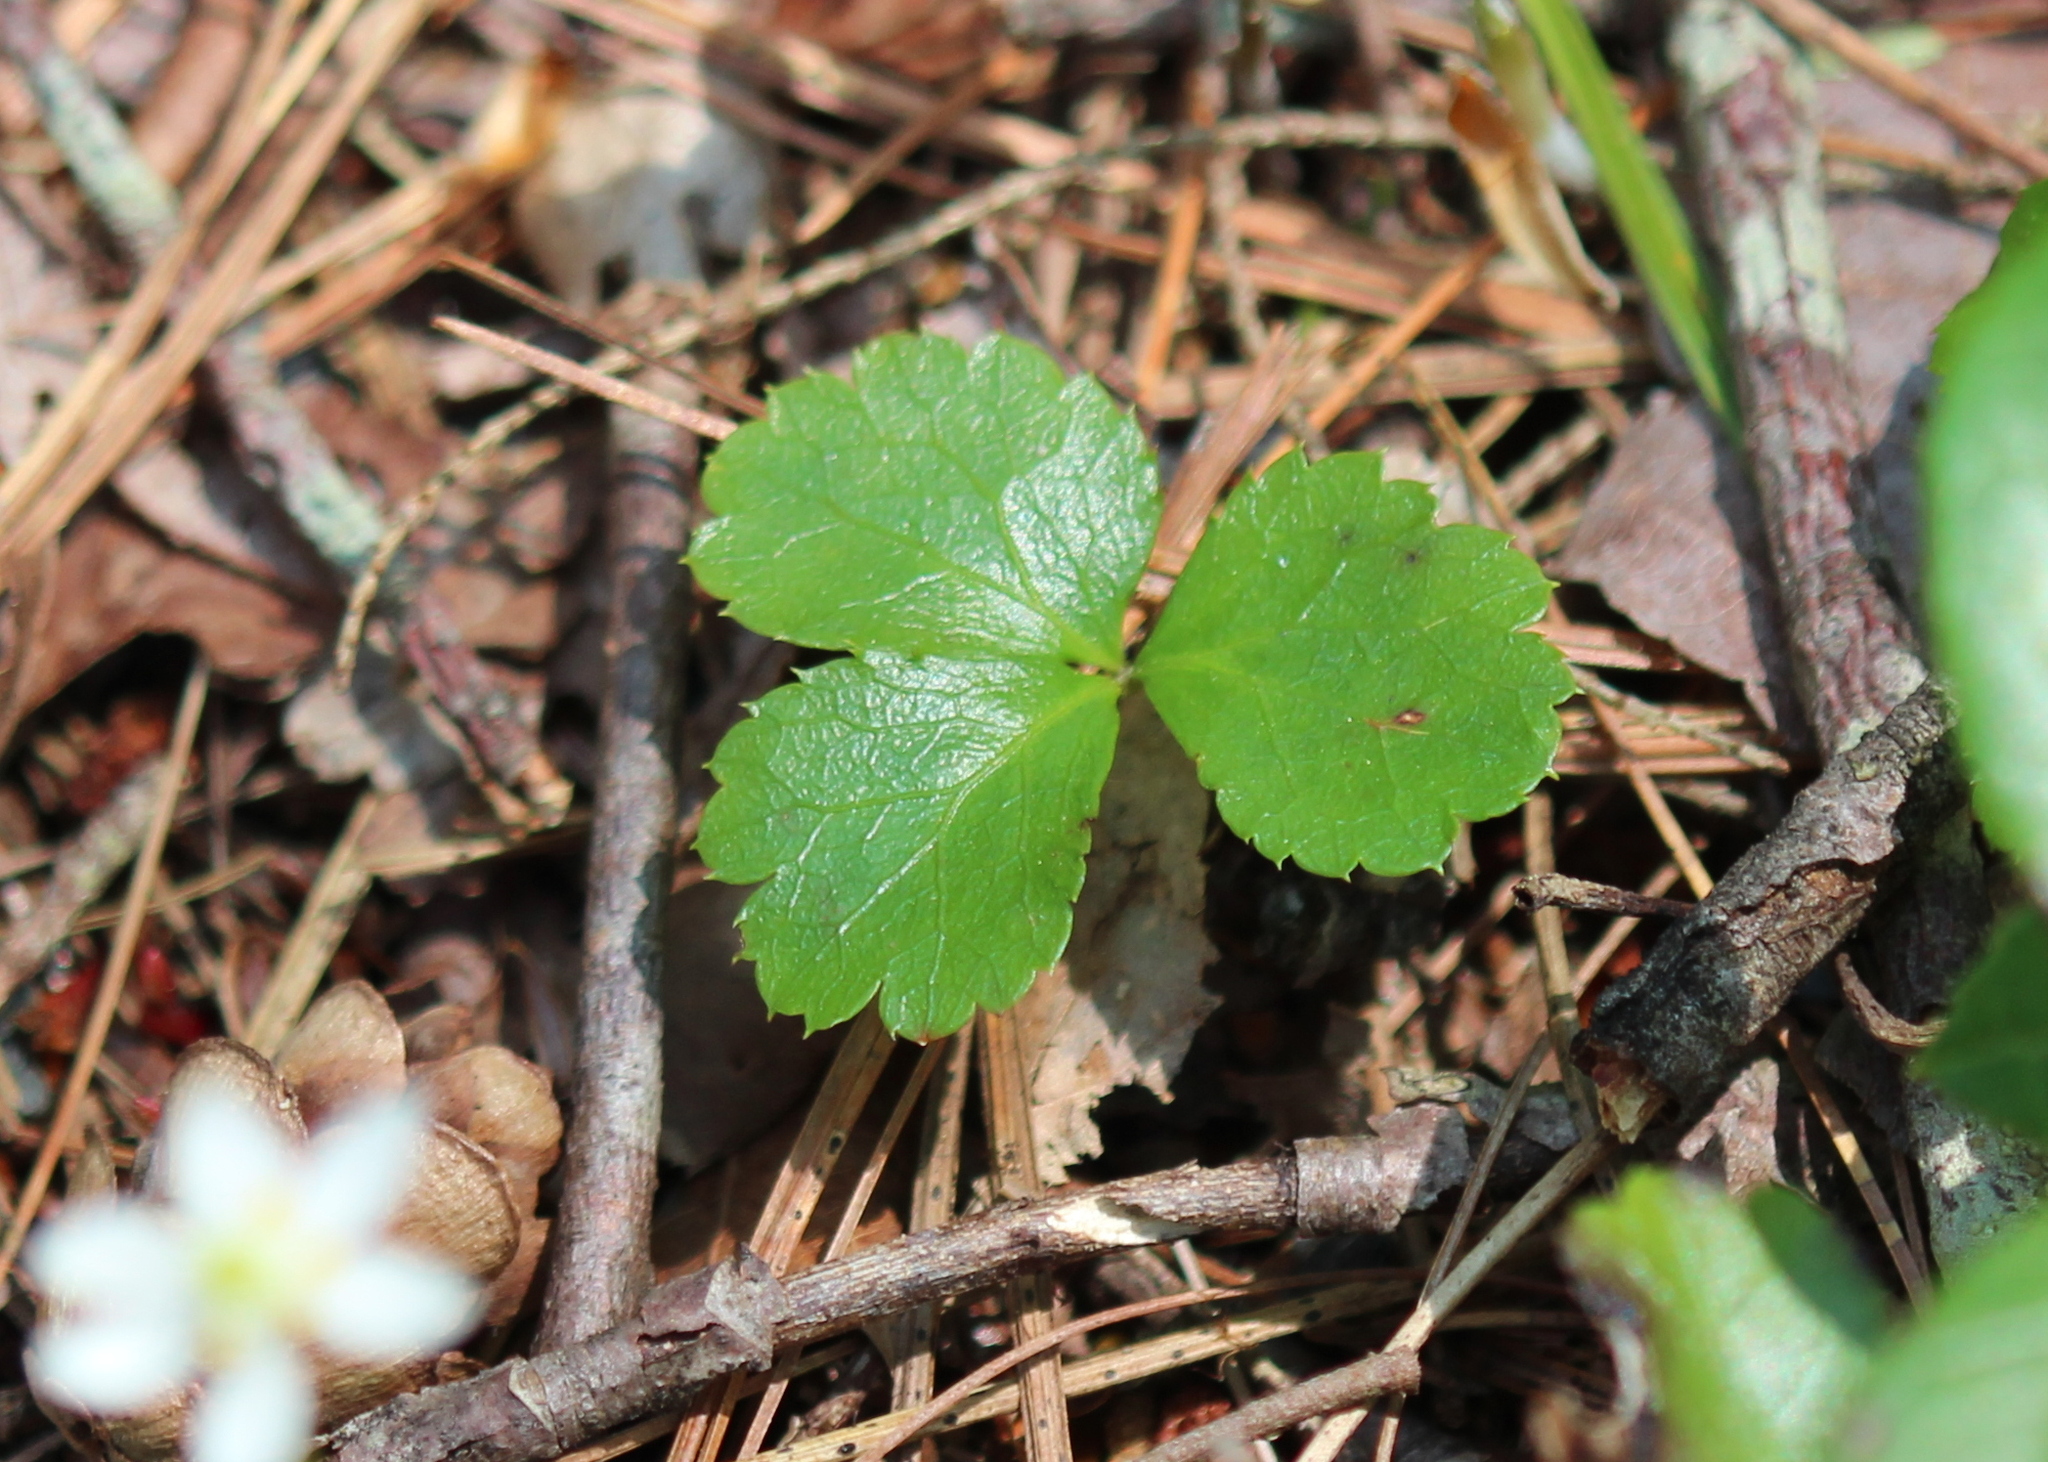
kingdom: Plantae
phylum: Tracheophyta
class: Magnoliopsida
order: Ranunculales
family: Ranunculaceae
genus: Coptis
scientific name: Coptis trifolia
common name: Canker-root
